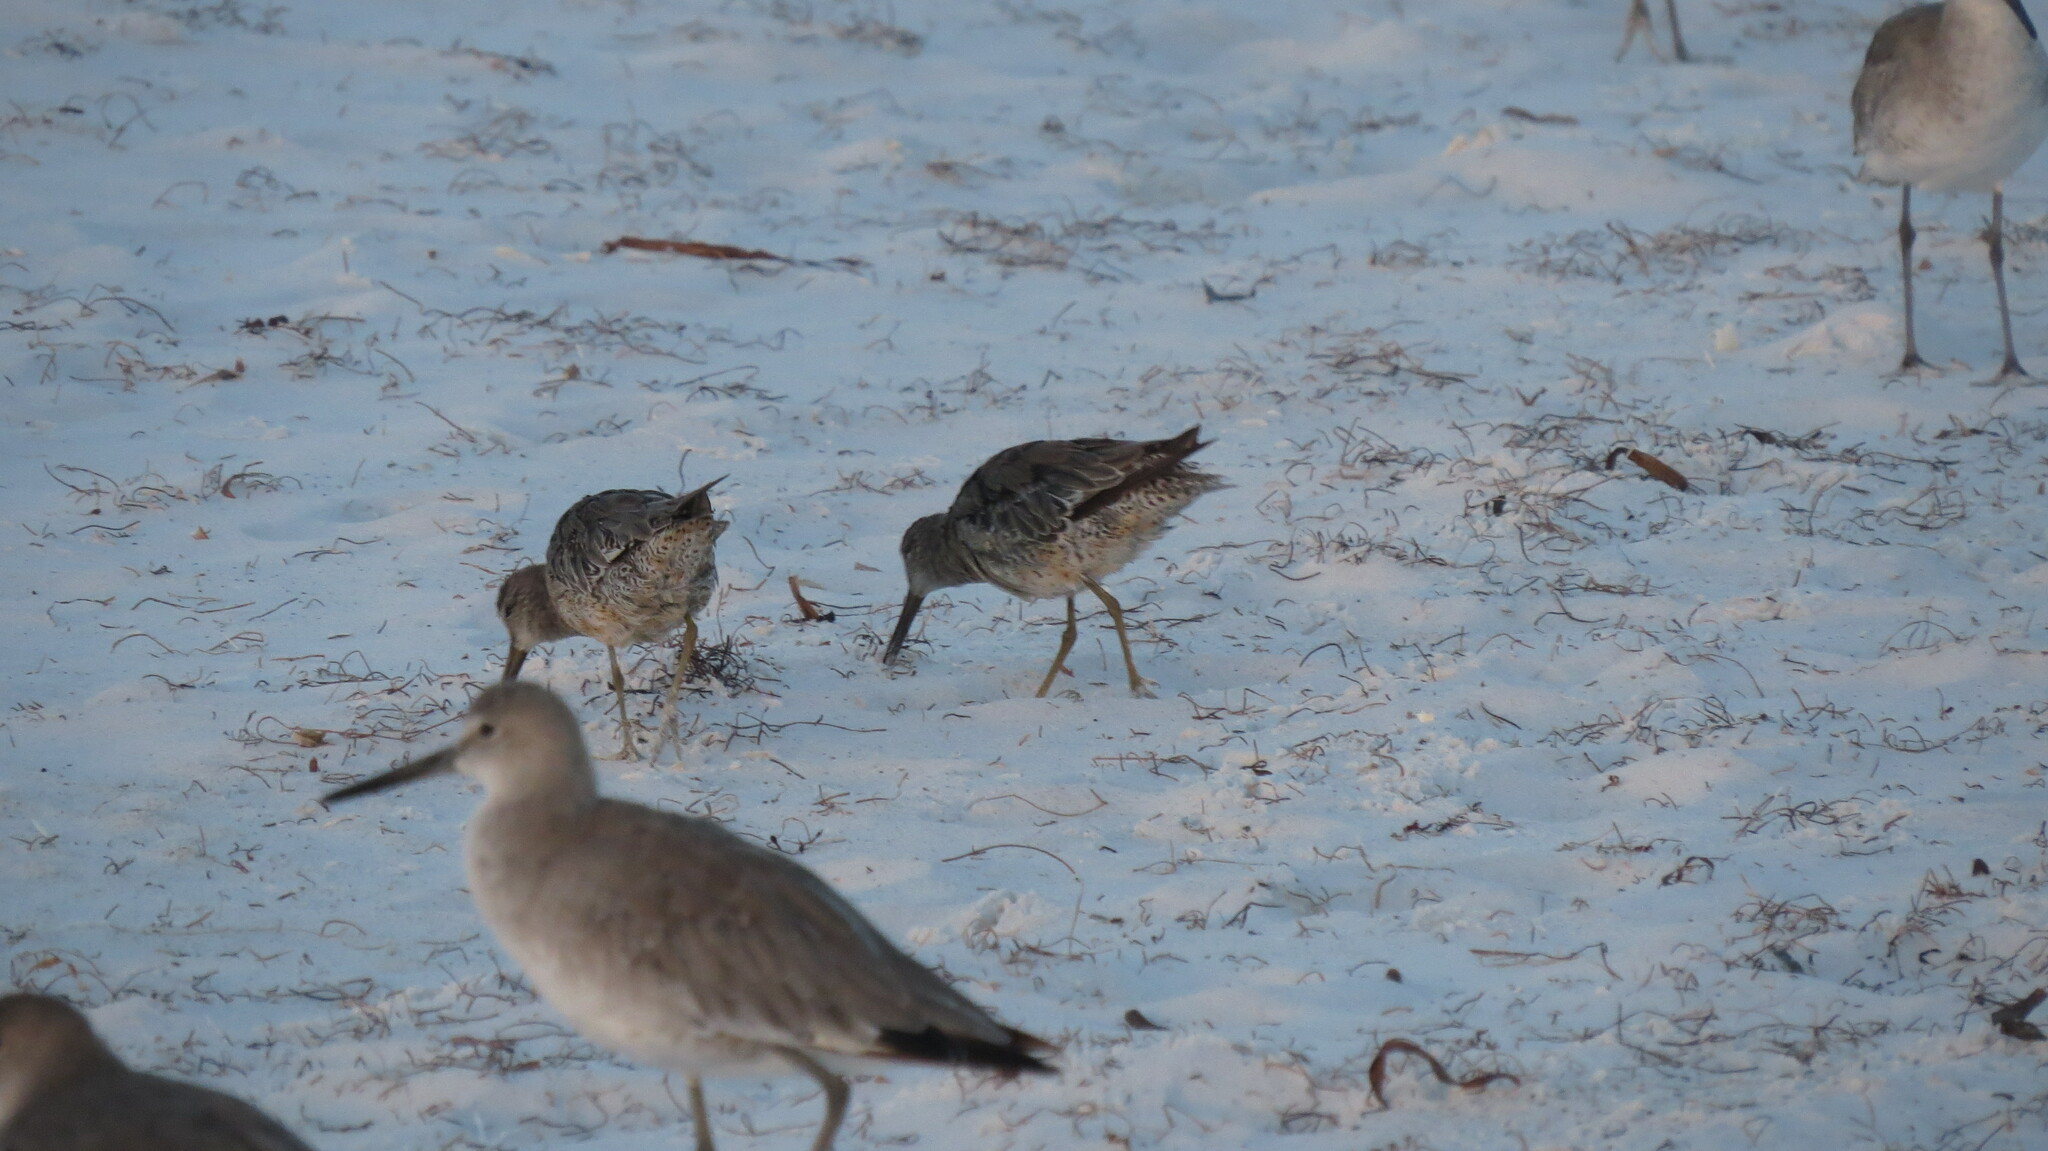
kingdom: Animalia
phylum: Chordata
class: Aves
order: Charadriiformes
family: Scolopacidae
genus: Limnodromus
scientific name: Limnodromus griseus
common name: Short-billed dowitcher
